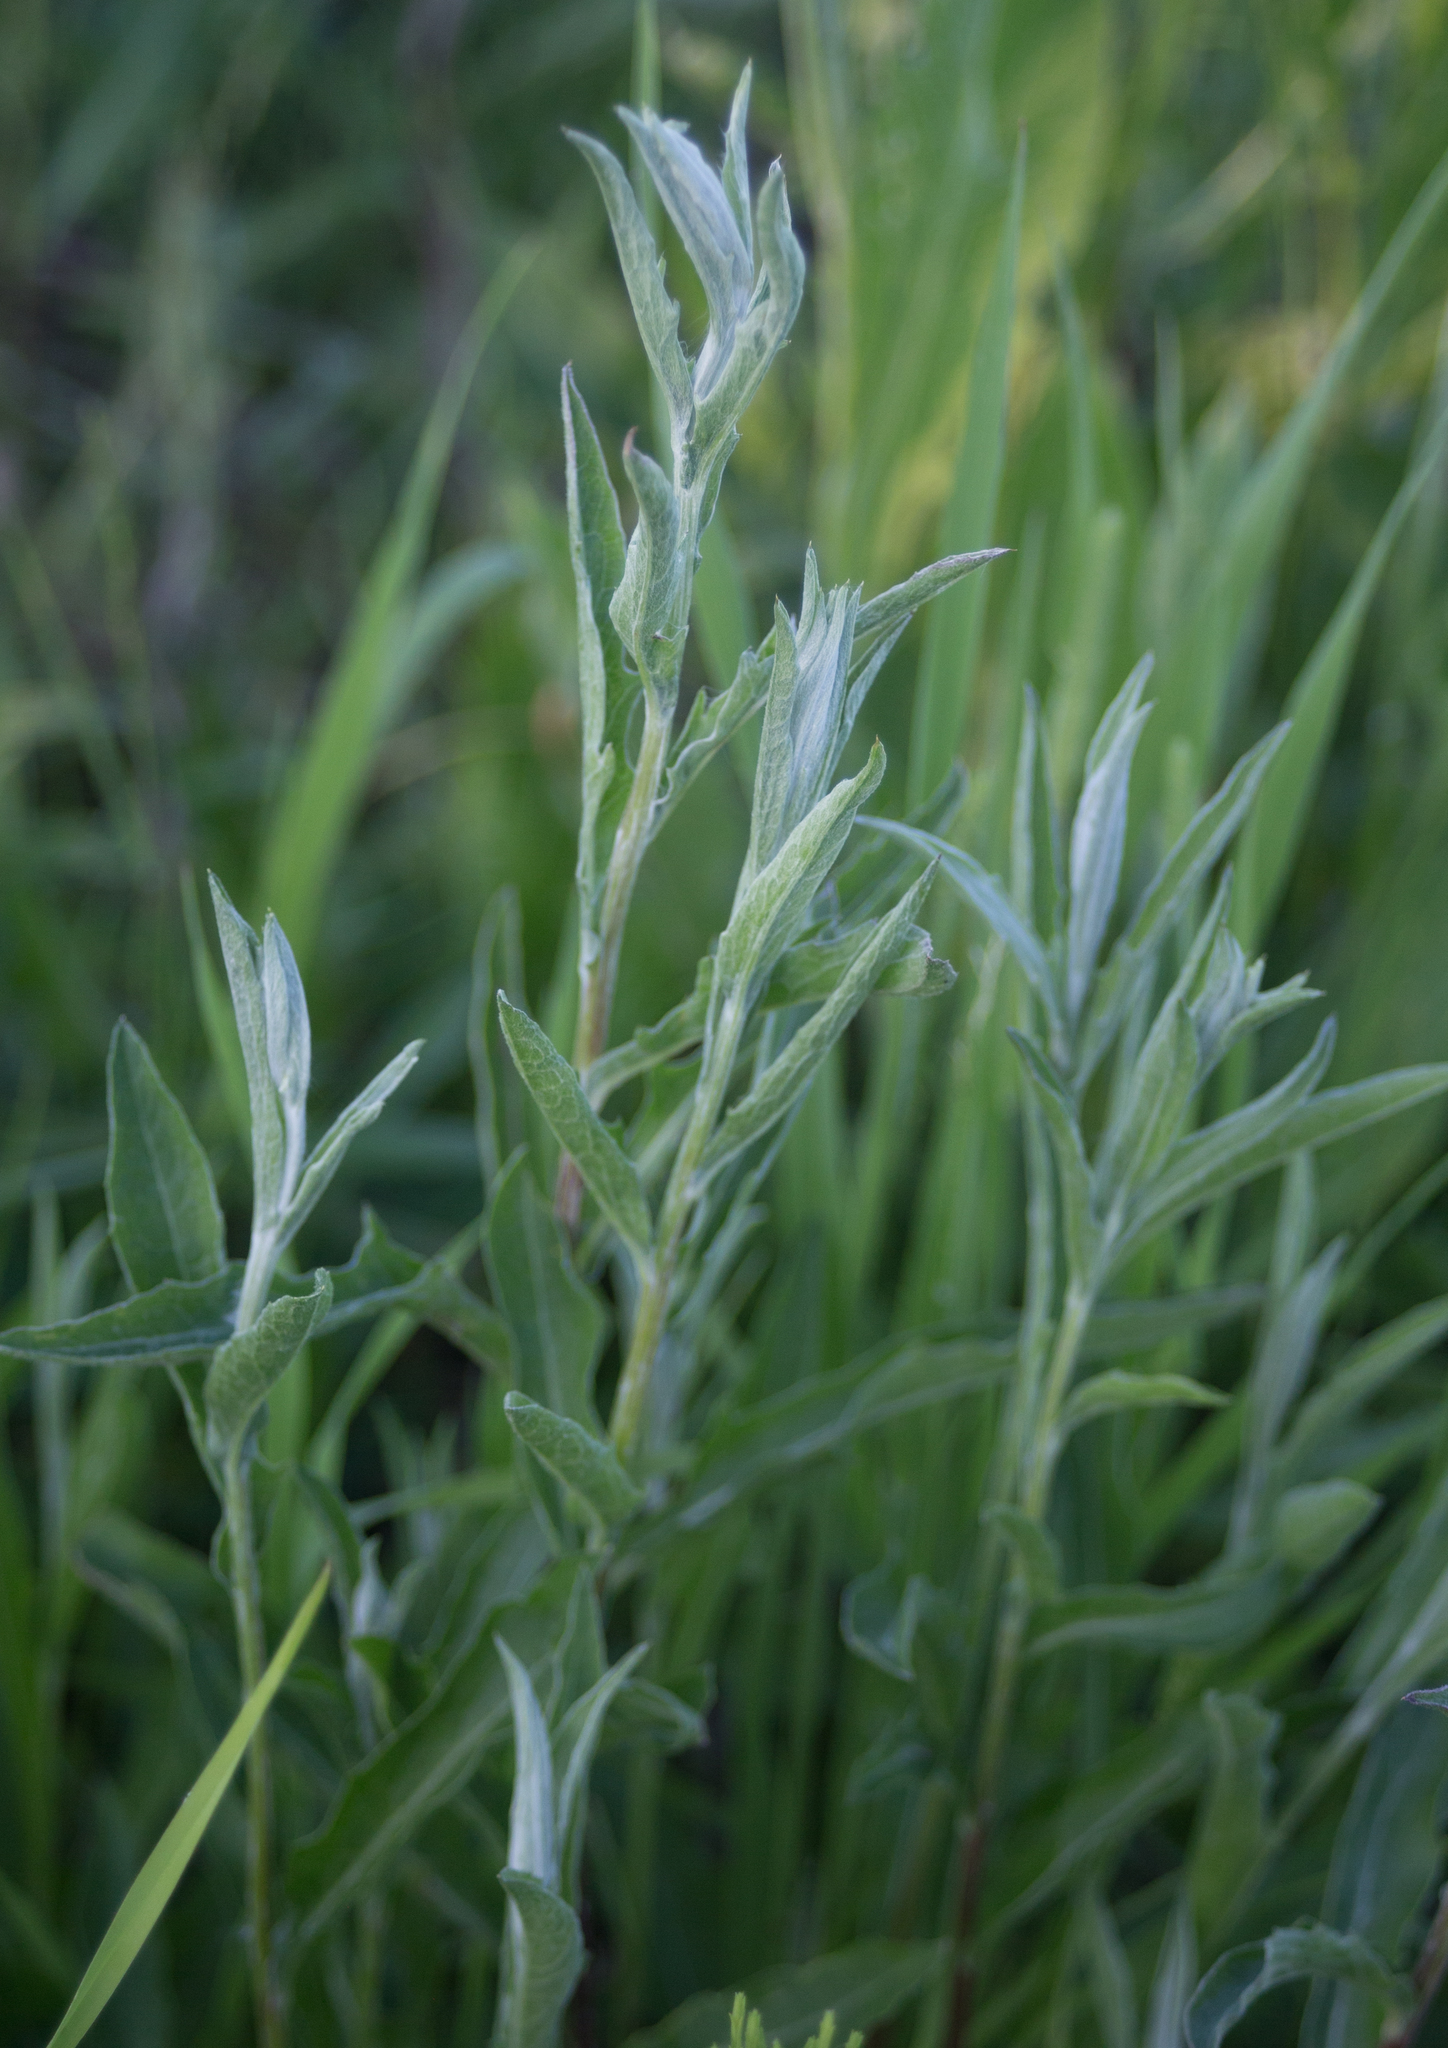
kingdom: Plantae
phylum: Tracheophyta
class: Magnoliopsida
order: Asterales
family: Asteraceae
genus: Centaurea
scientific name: Centaurea jacea
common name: Brown knapweed
